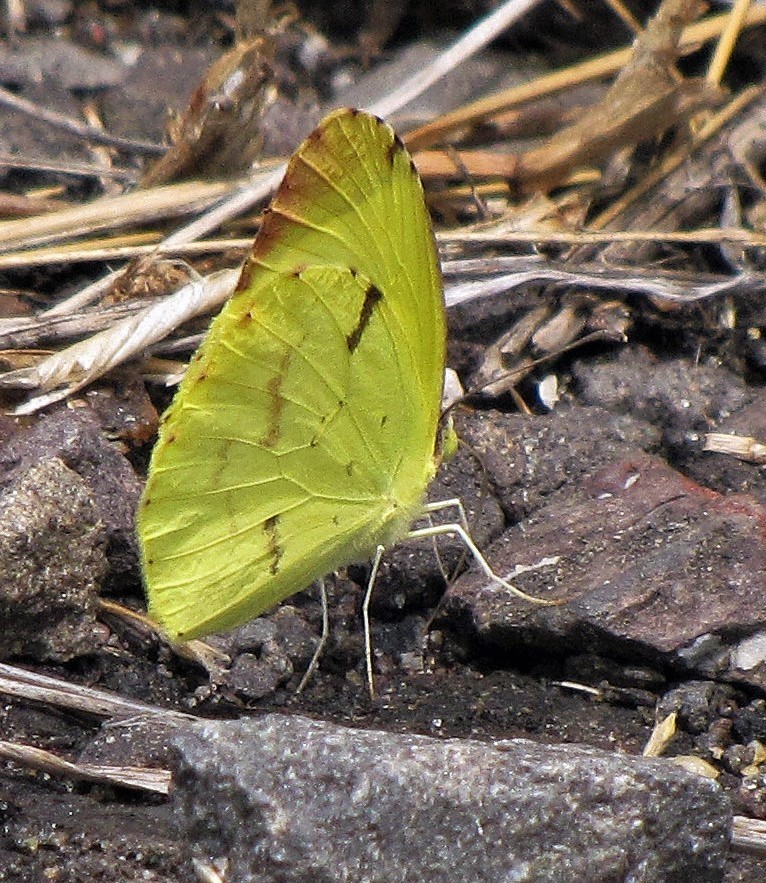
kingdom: Animalia
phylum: Arthropoda
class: Insecta
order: Lepidoptera
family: Pieridae
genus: Teriocolias
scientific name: Teriocolias
